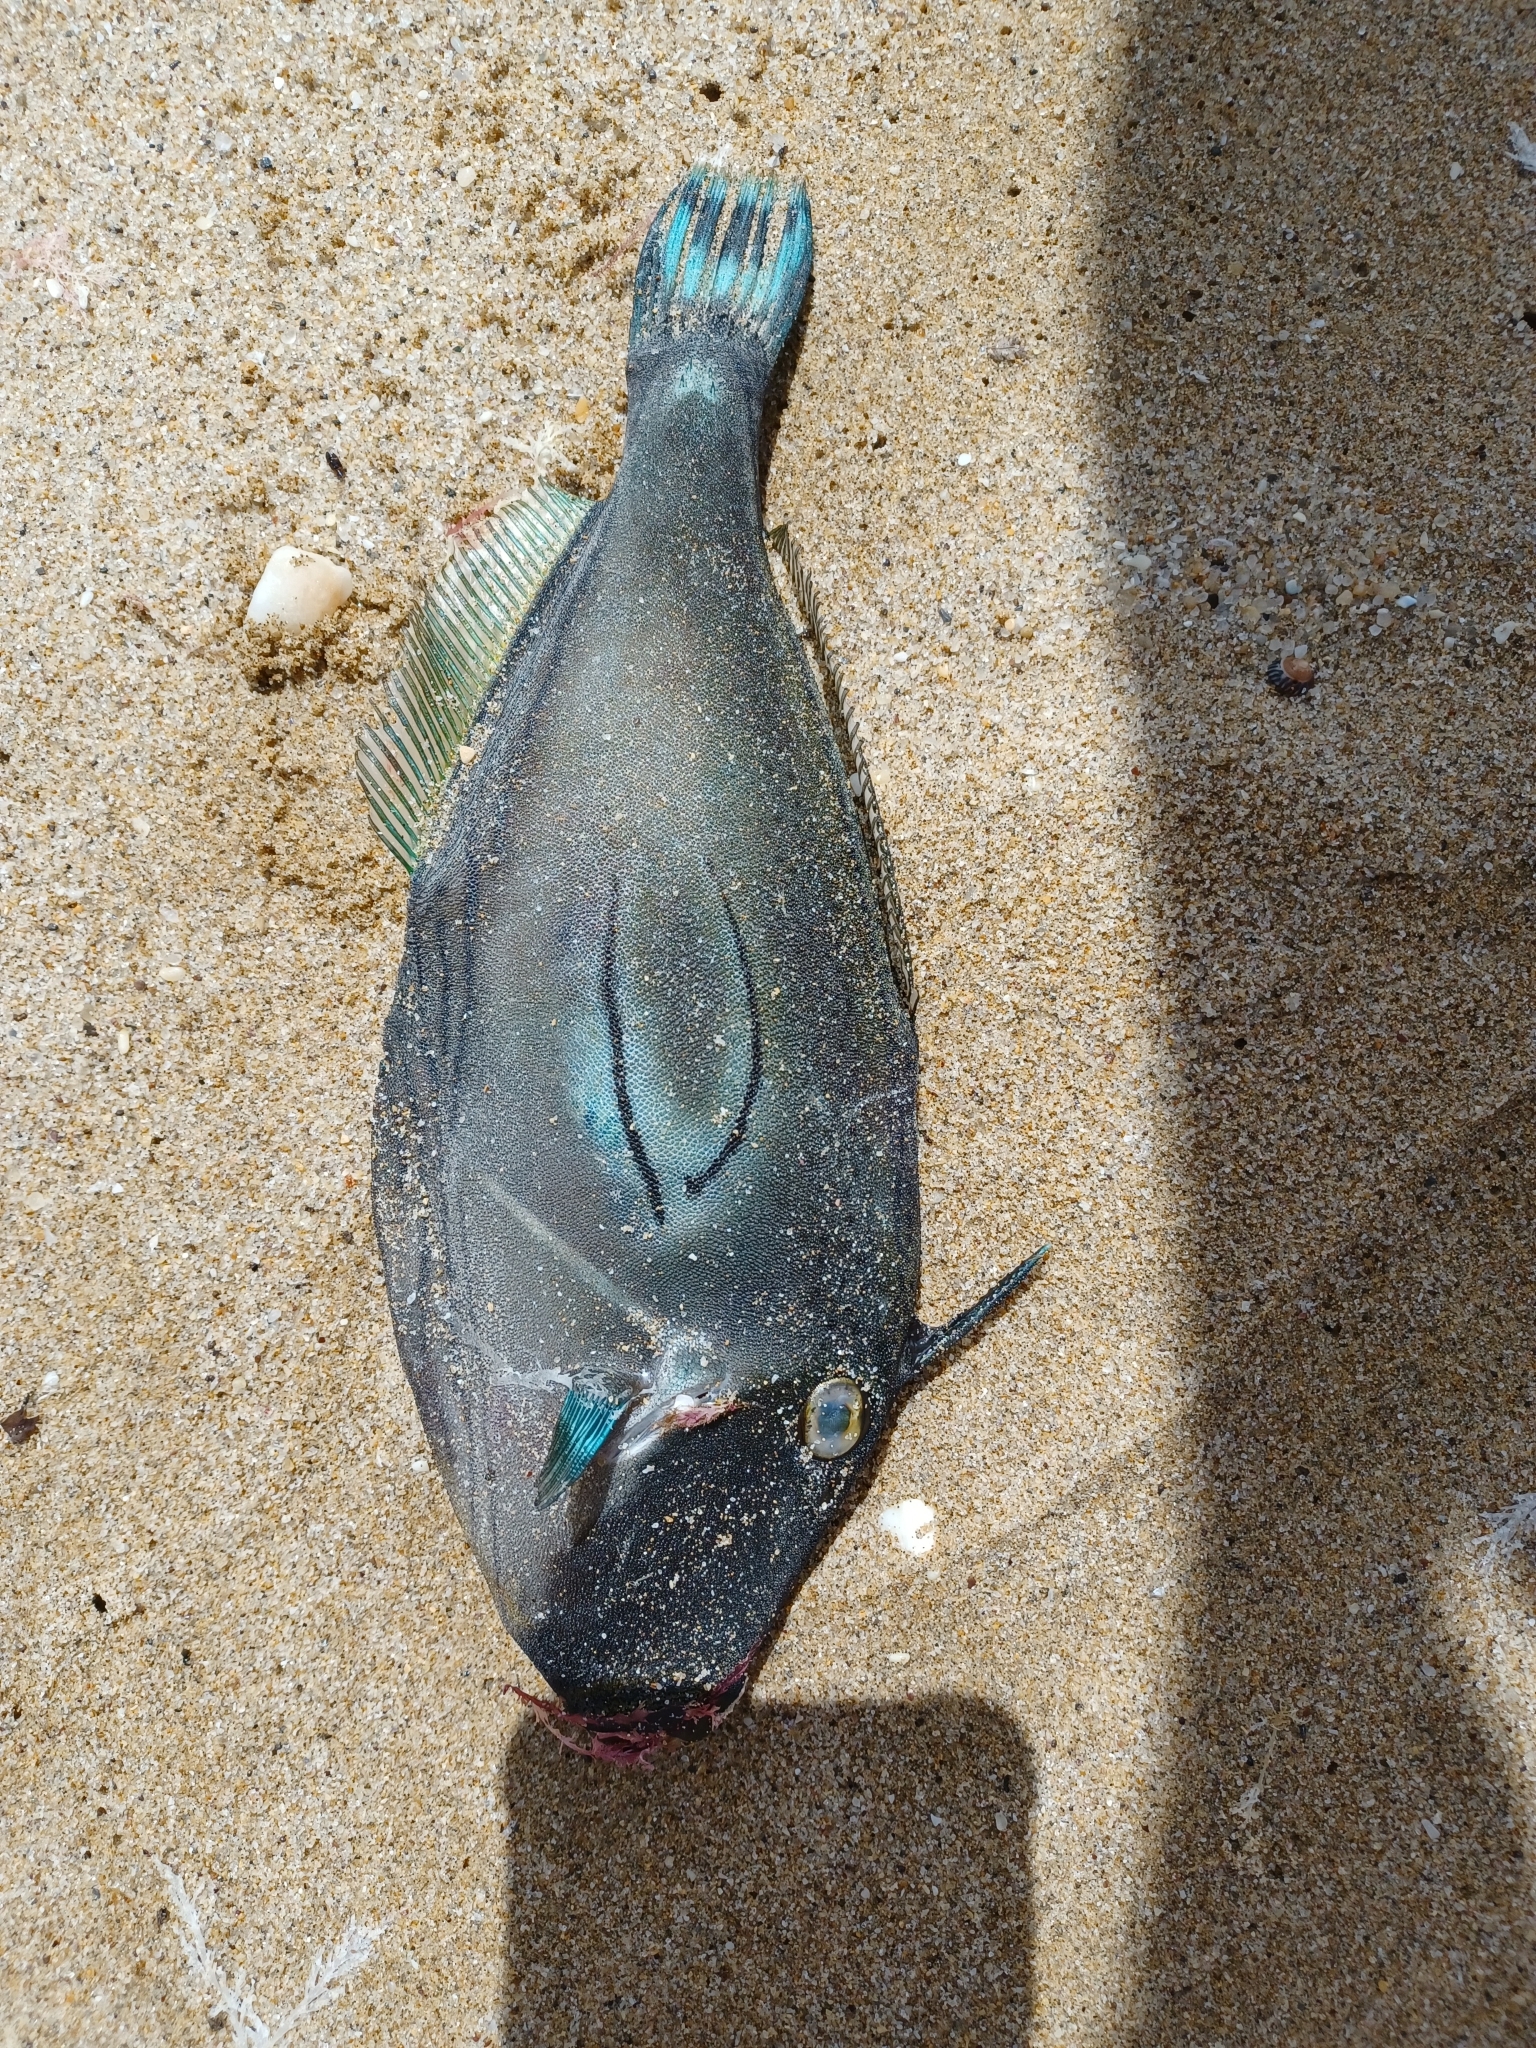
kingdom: Animalia
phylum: Chordata
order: Tetraodontiformes
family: Monacanthidae
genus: Meuschenia
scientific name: Meuschenia hippocrepis
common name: Horse-shoe leatherjacket
